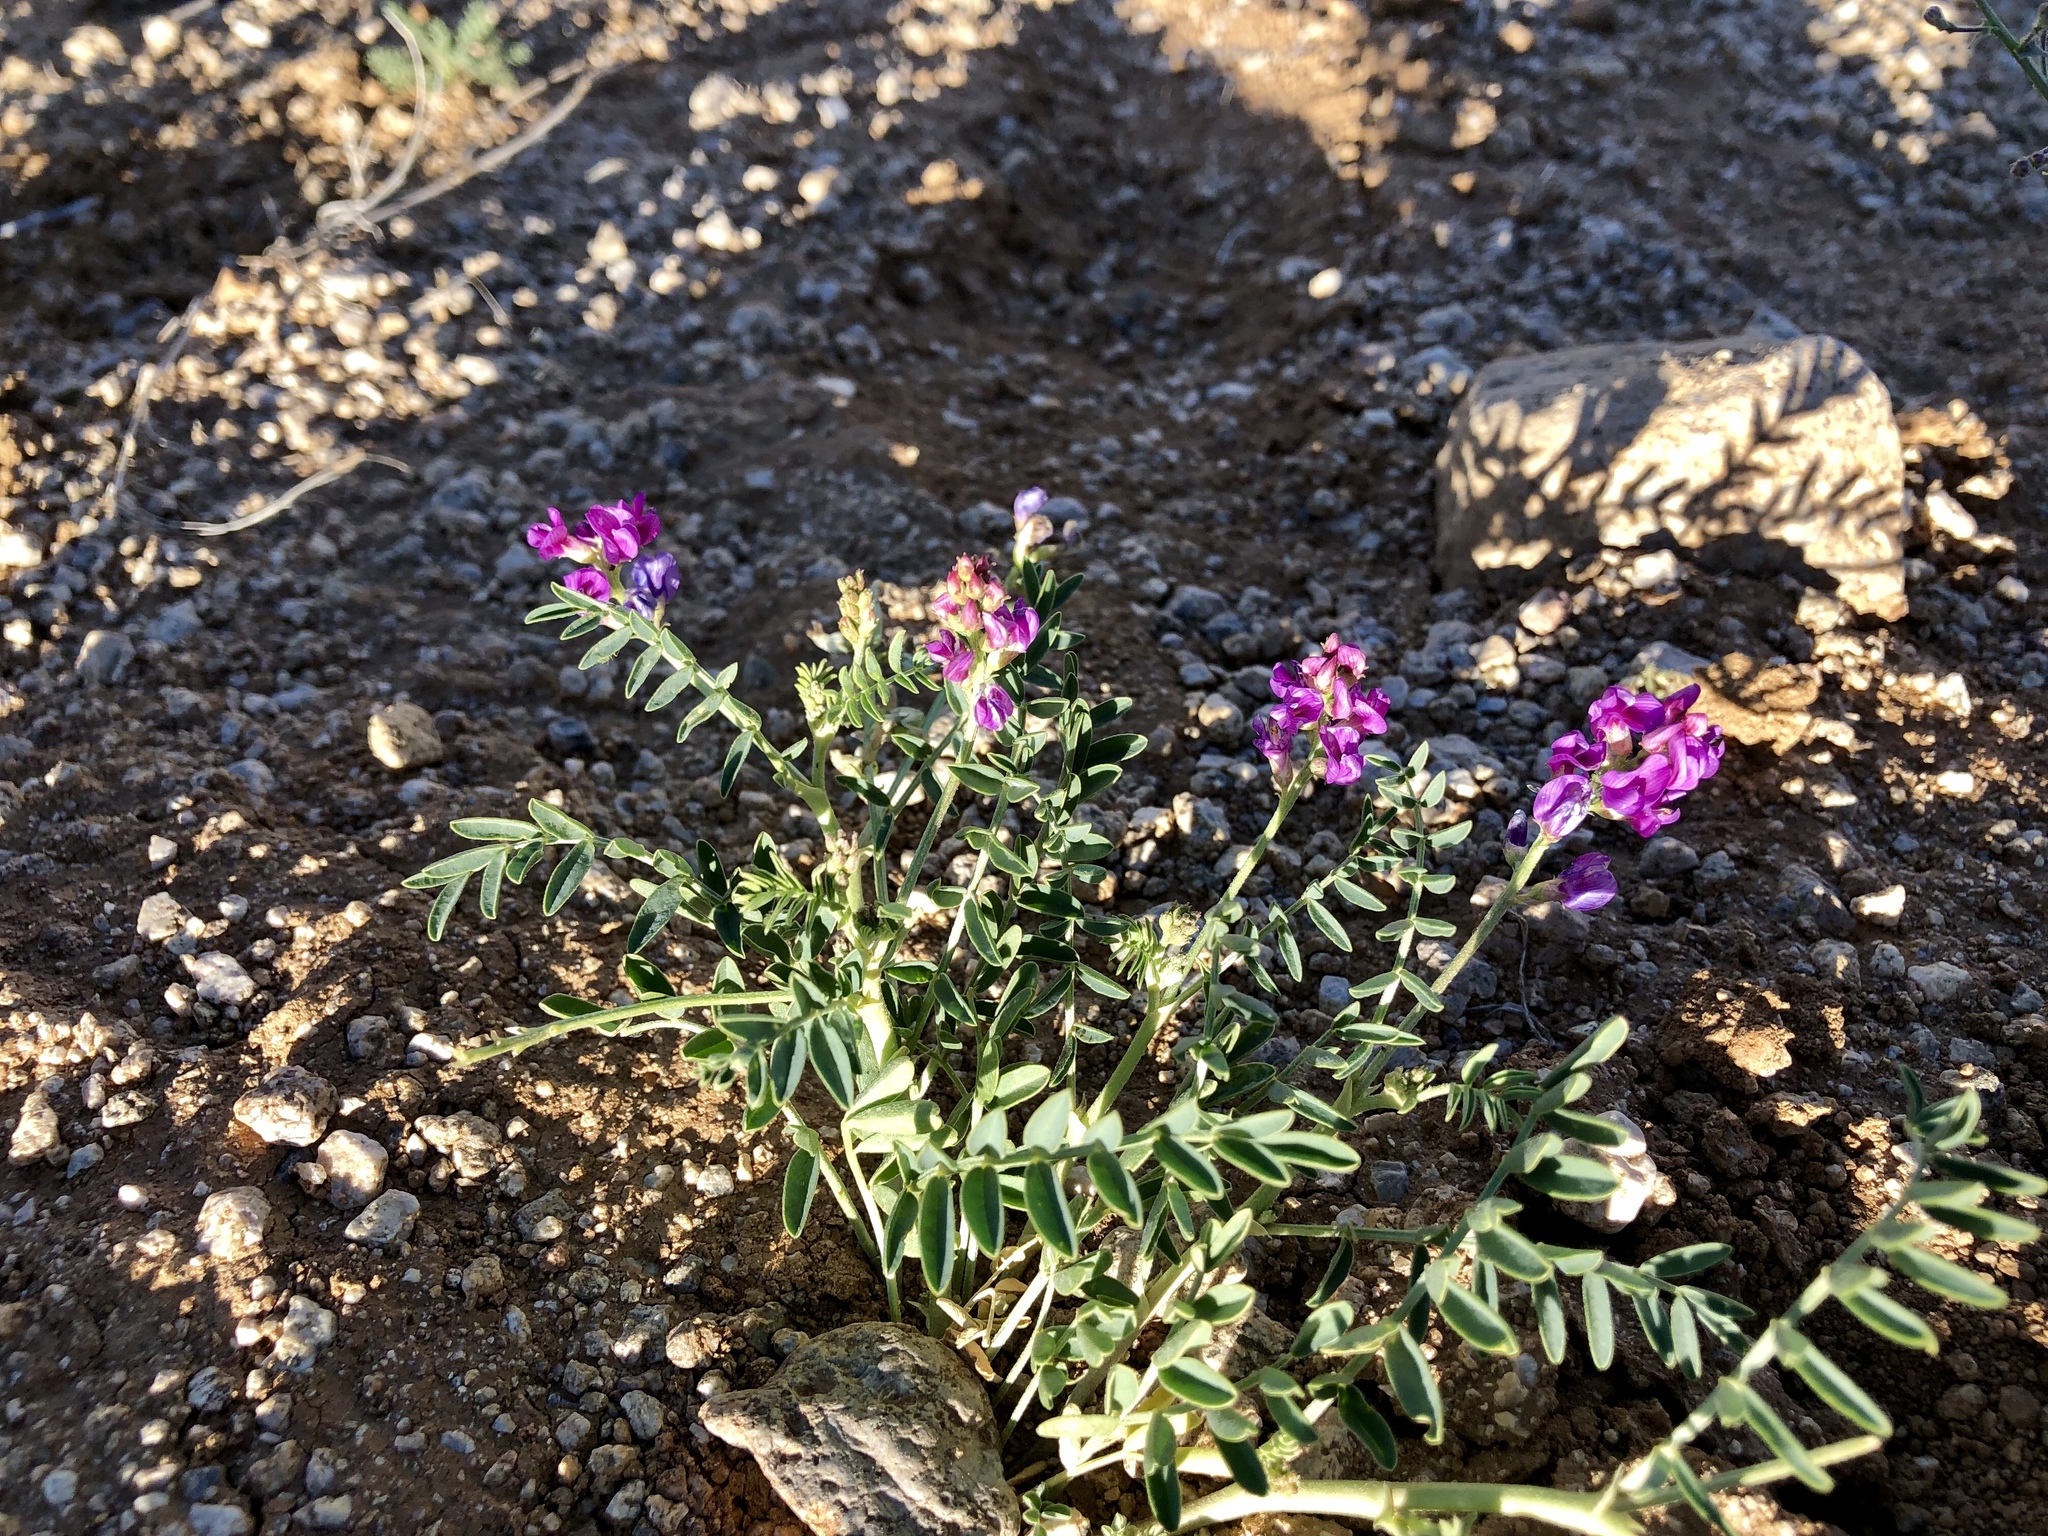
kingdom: Plantae
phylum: Tracheophyta
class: Magnoliopsida
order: Fabales
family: Fabaceae
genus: Astragalus
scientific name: Astragalus allochrous
